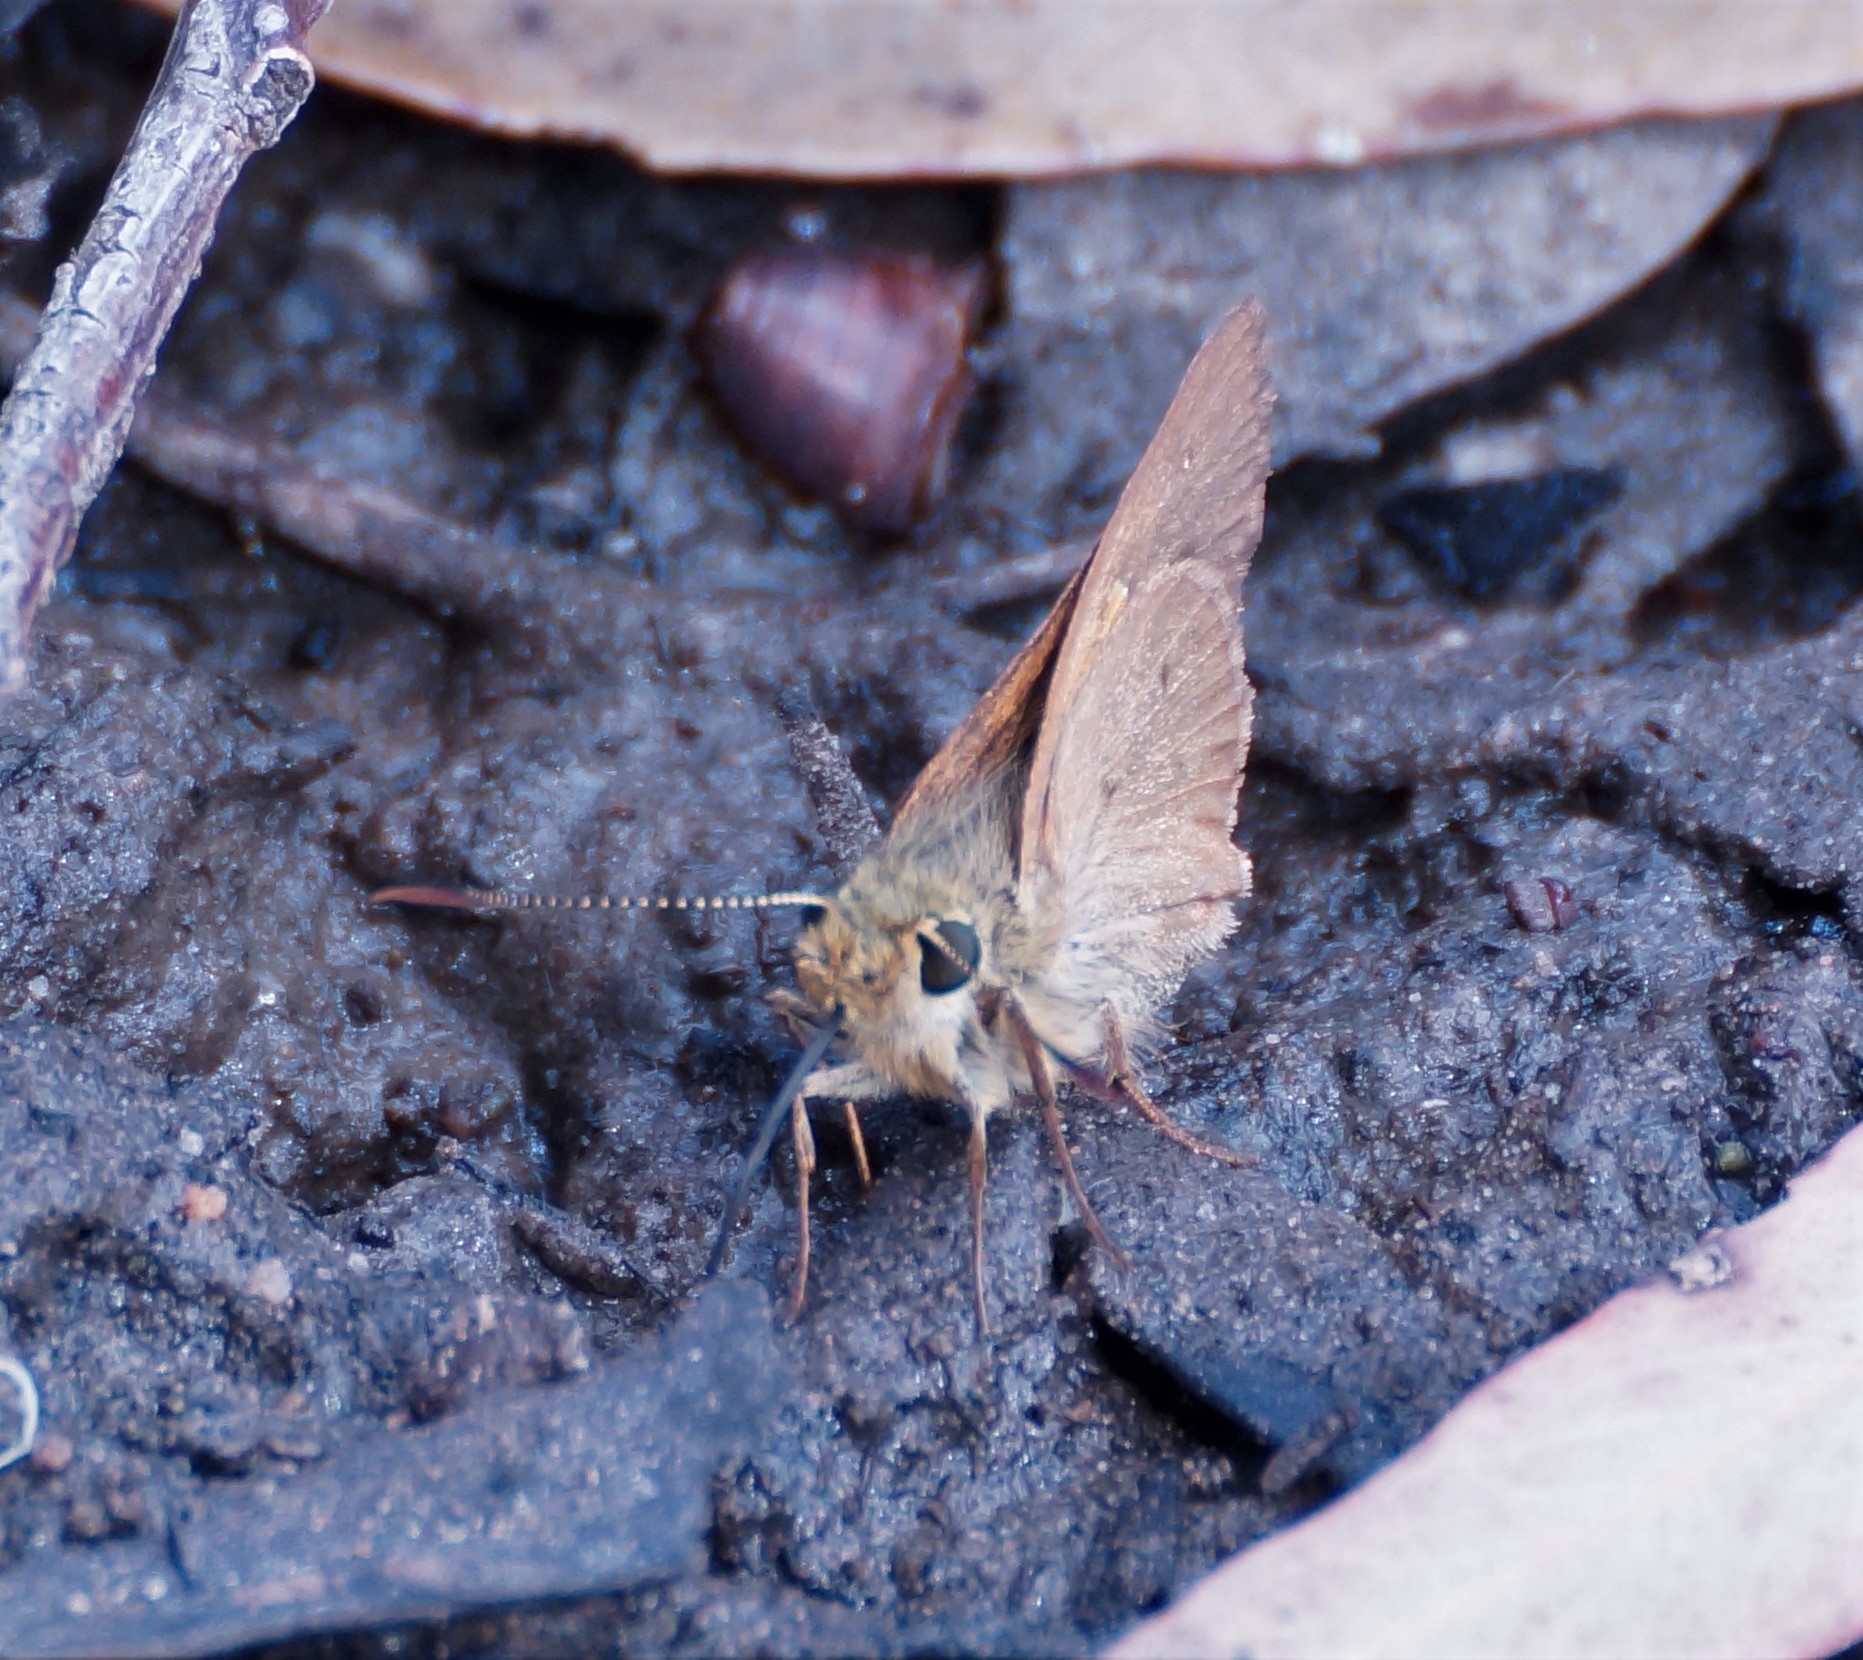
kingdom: Animalia
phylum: Arthropoda
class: Insecta
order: Lepidoptera
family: Hesperiidae
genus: Toxidia
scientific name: Toxidia
